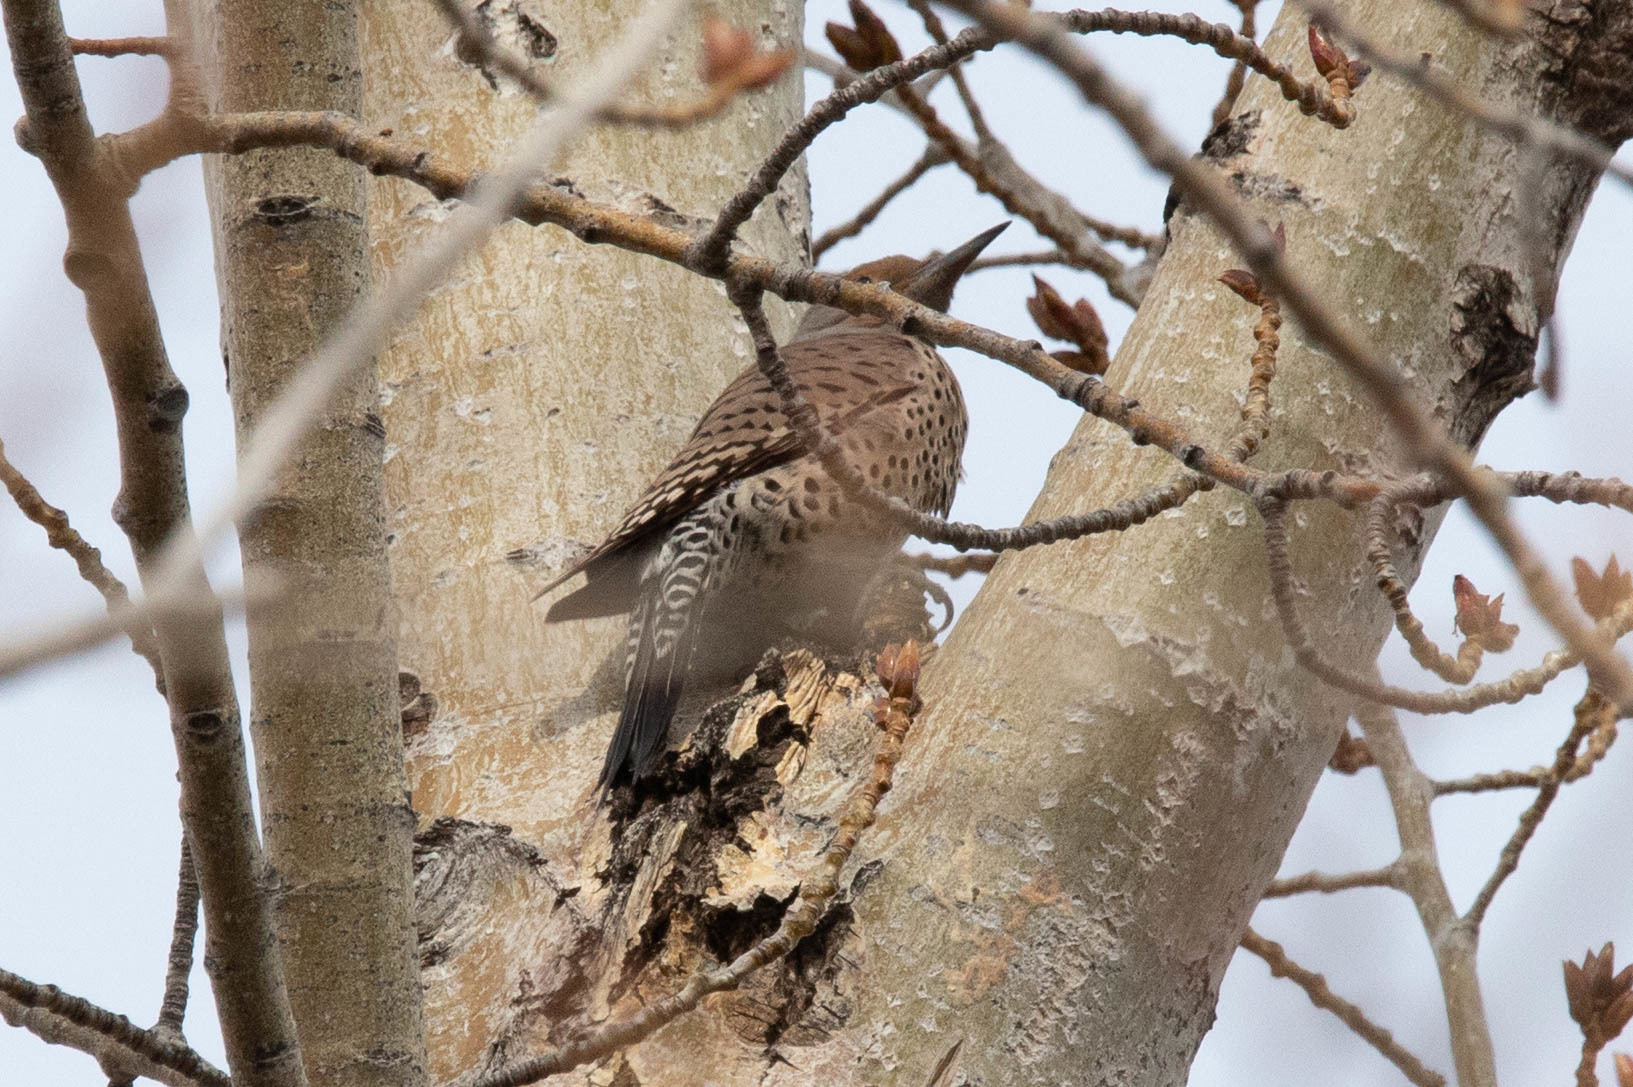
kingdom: Animalia
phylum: Chordata
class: Aves
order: Piciformes
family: Picidae
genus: Colaptes
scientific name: Colaptes auratus
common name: Northern flicker
